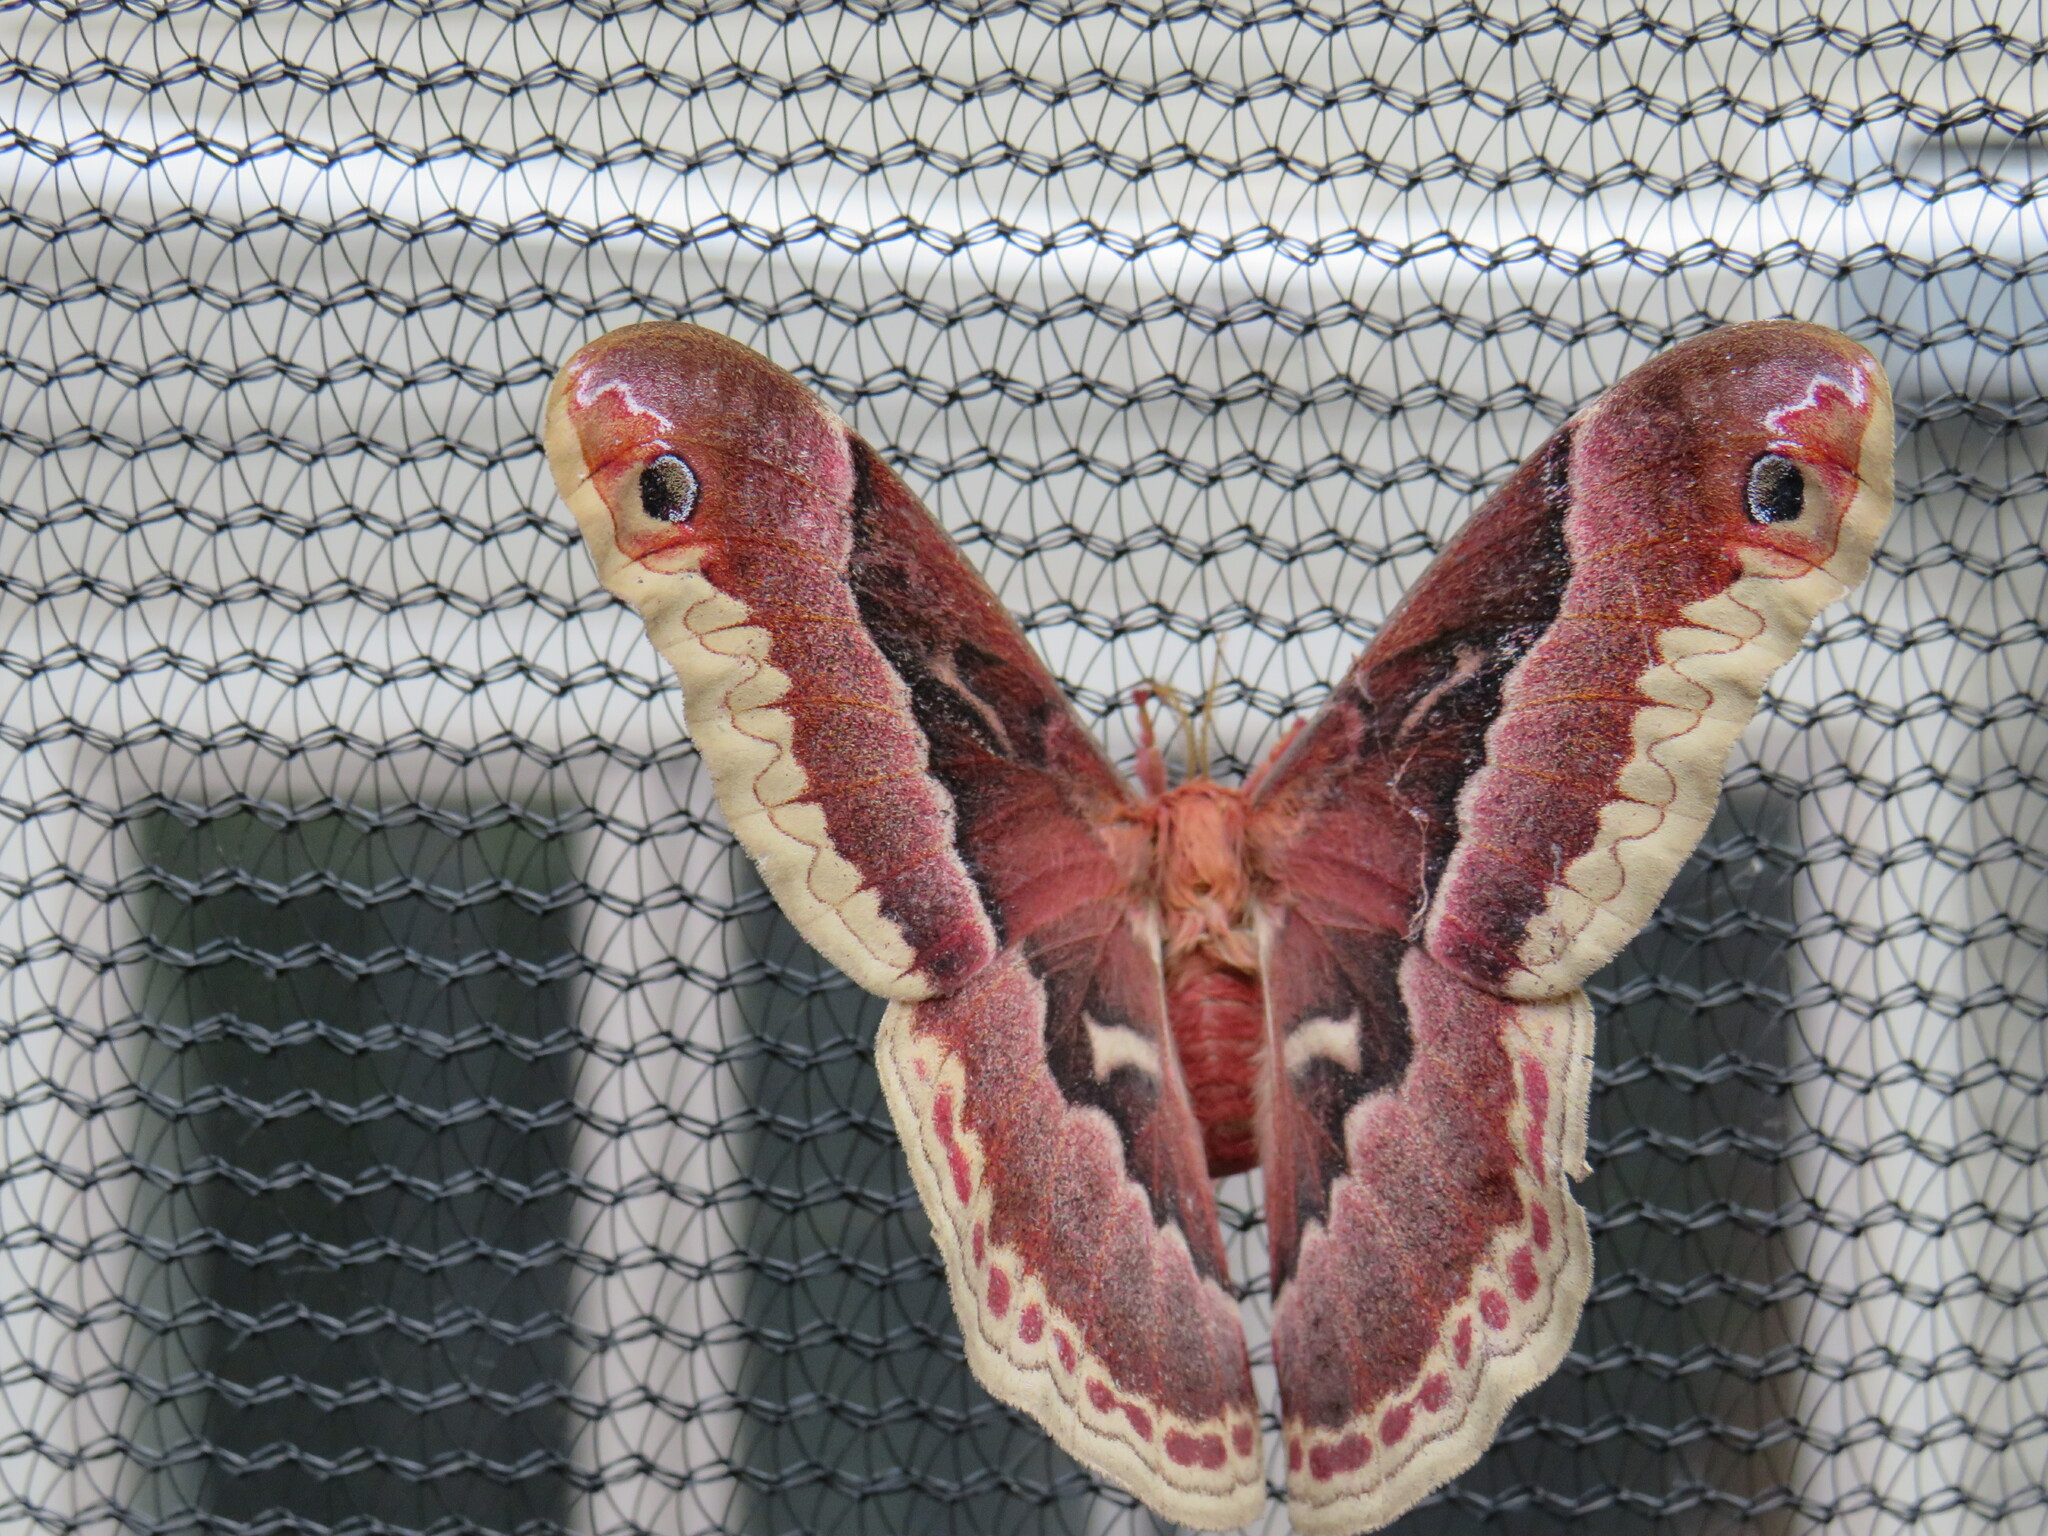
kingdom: Animalia
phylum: Arthropoda
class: Insecta
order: Lepidoptera
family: Saturniidae
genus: Callosamia
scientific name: Callosamia promethea
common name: Promethea silkmoth
